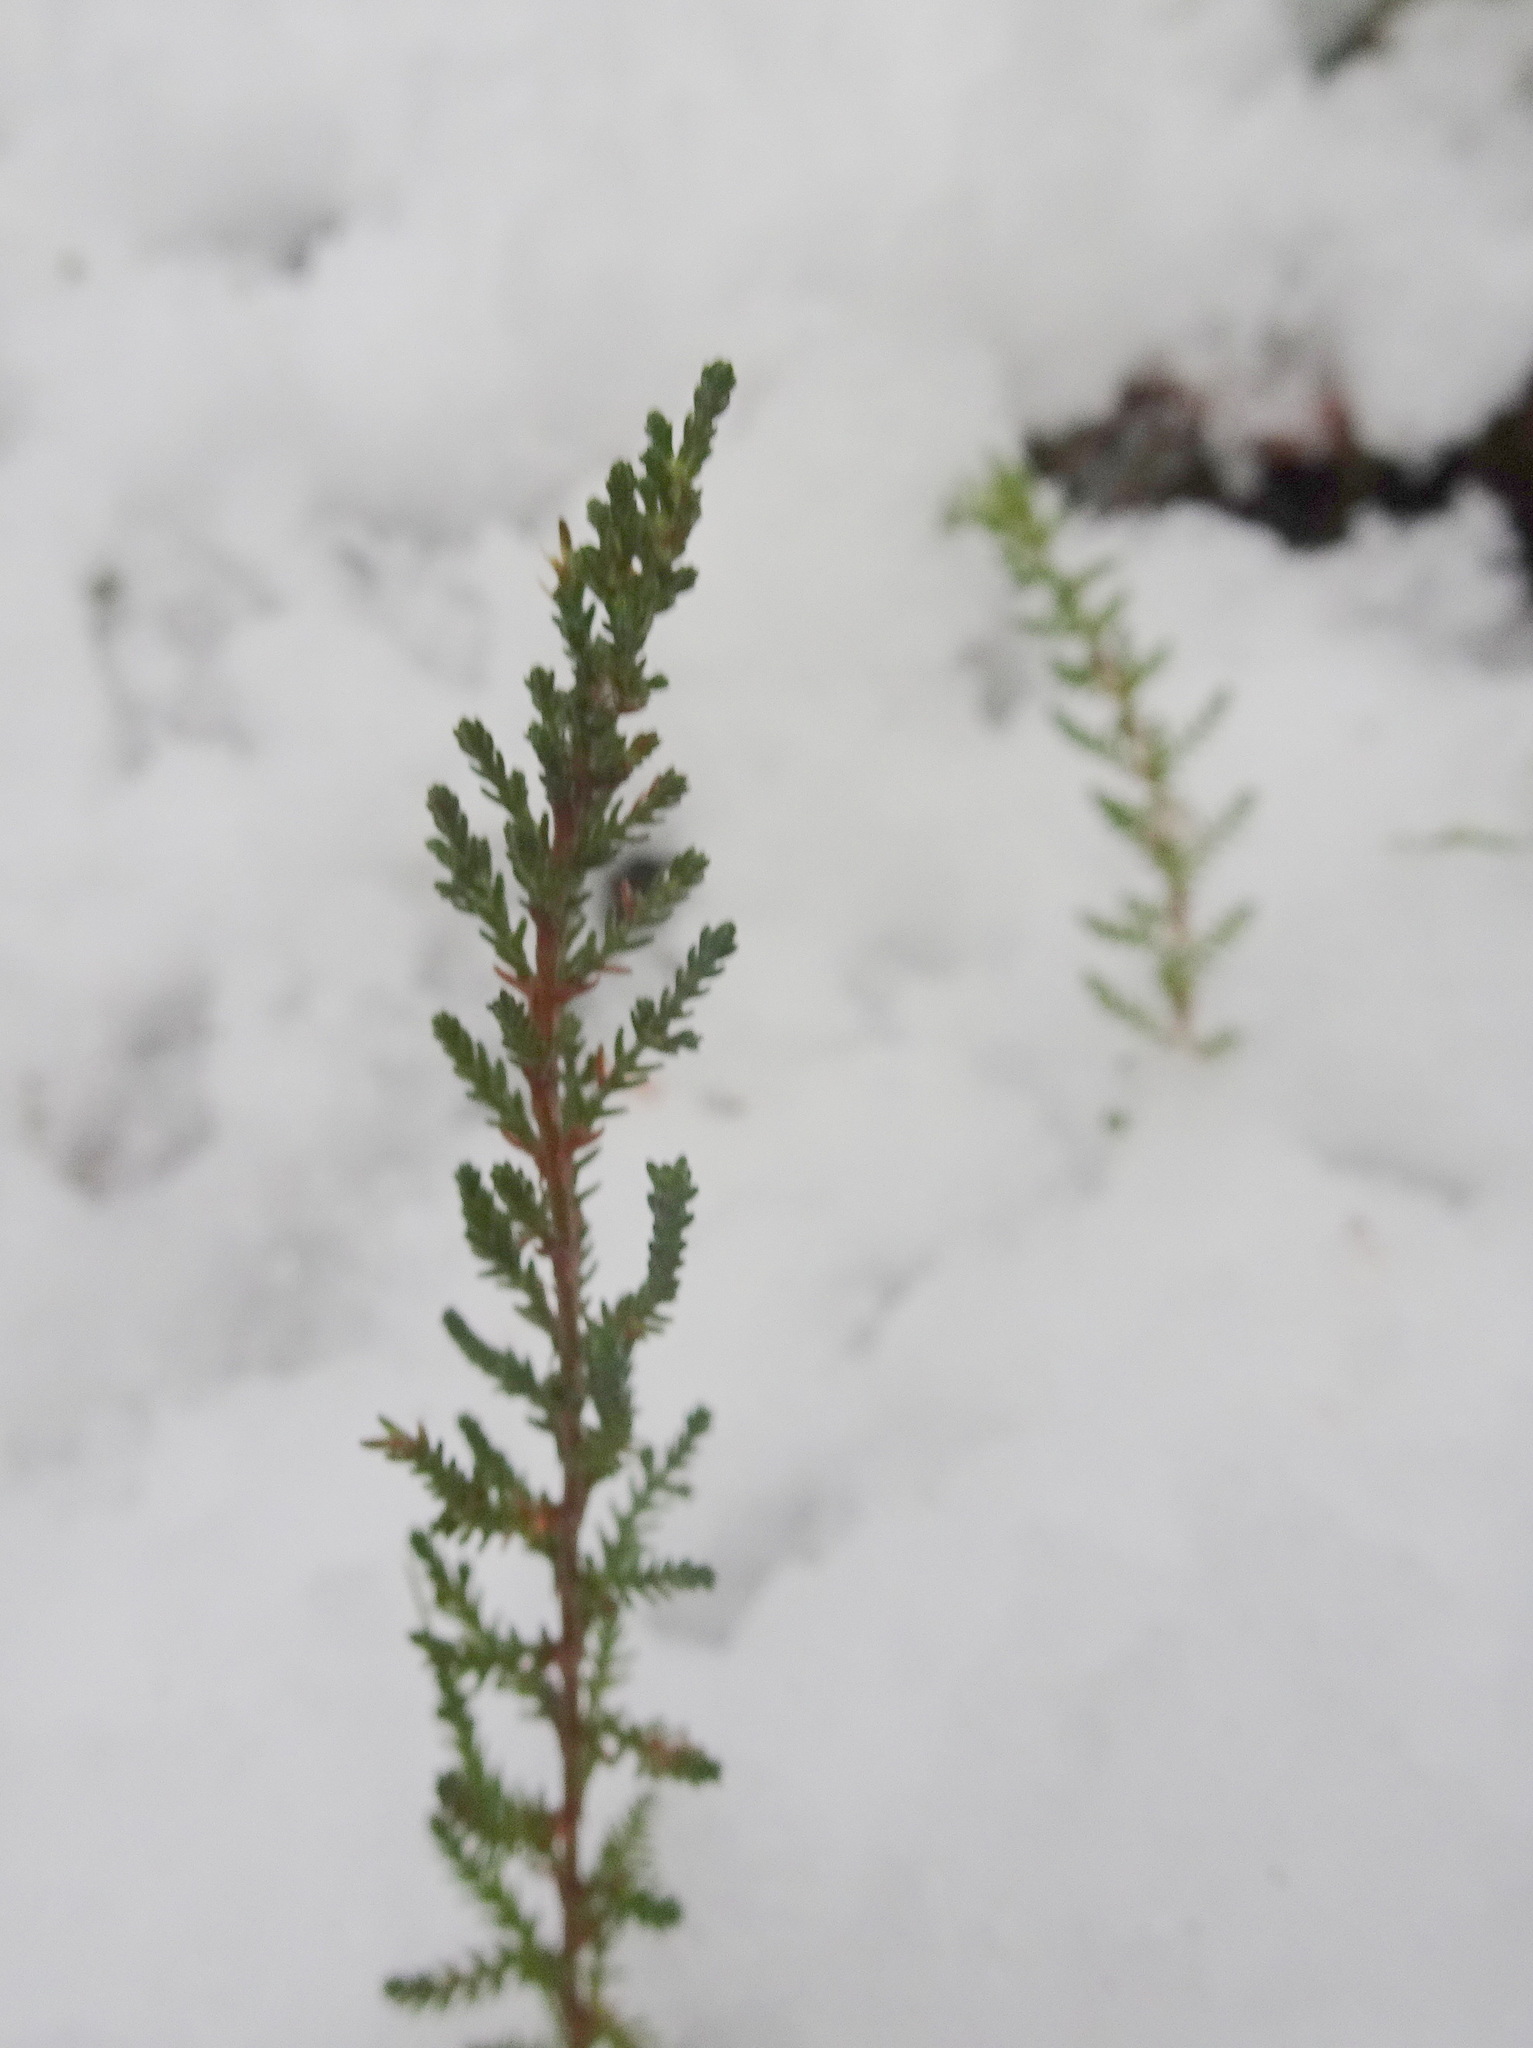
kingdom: Plantae
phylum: Tracheophyta
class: Magnoliopsida
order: Ericales
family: Ericaceae
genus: Calluna
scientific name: Calluna vulgaris
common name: Heather
